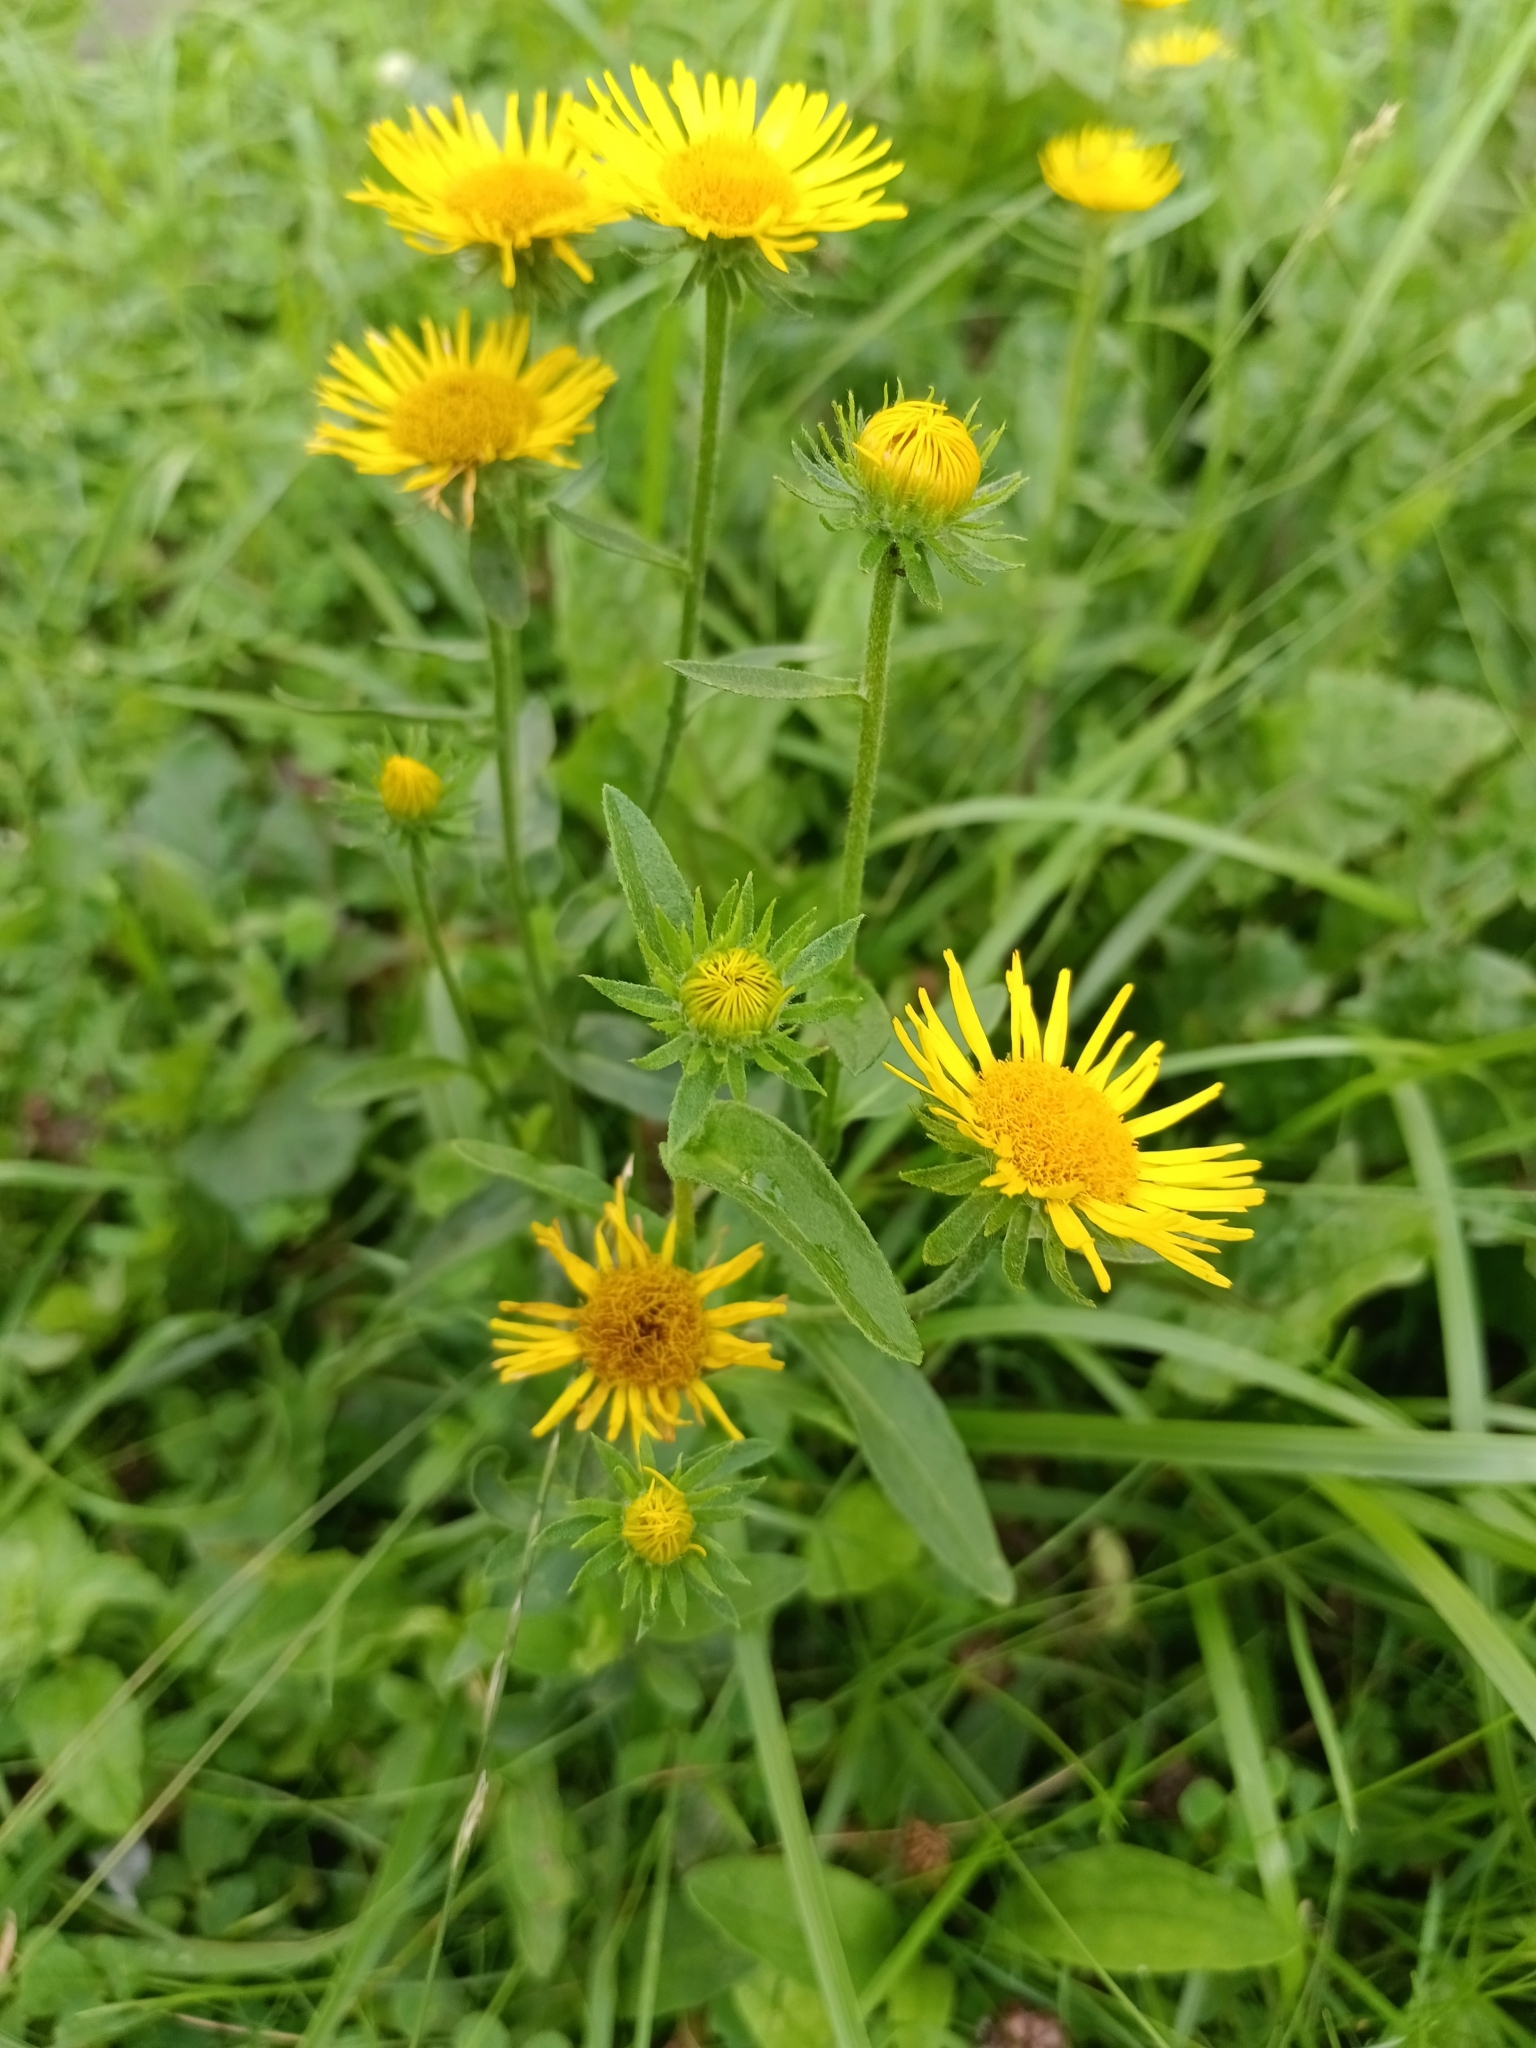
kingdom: Plantae
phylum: Tracheophyta
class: Magnoliopsida
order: Asterales
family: Asteraceae
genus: Pentanema
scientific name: Pentanema britannicum
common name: British elecampane
